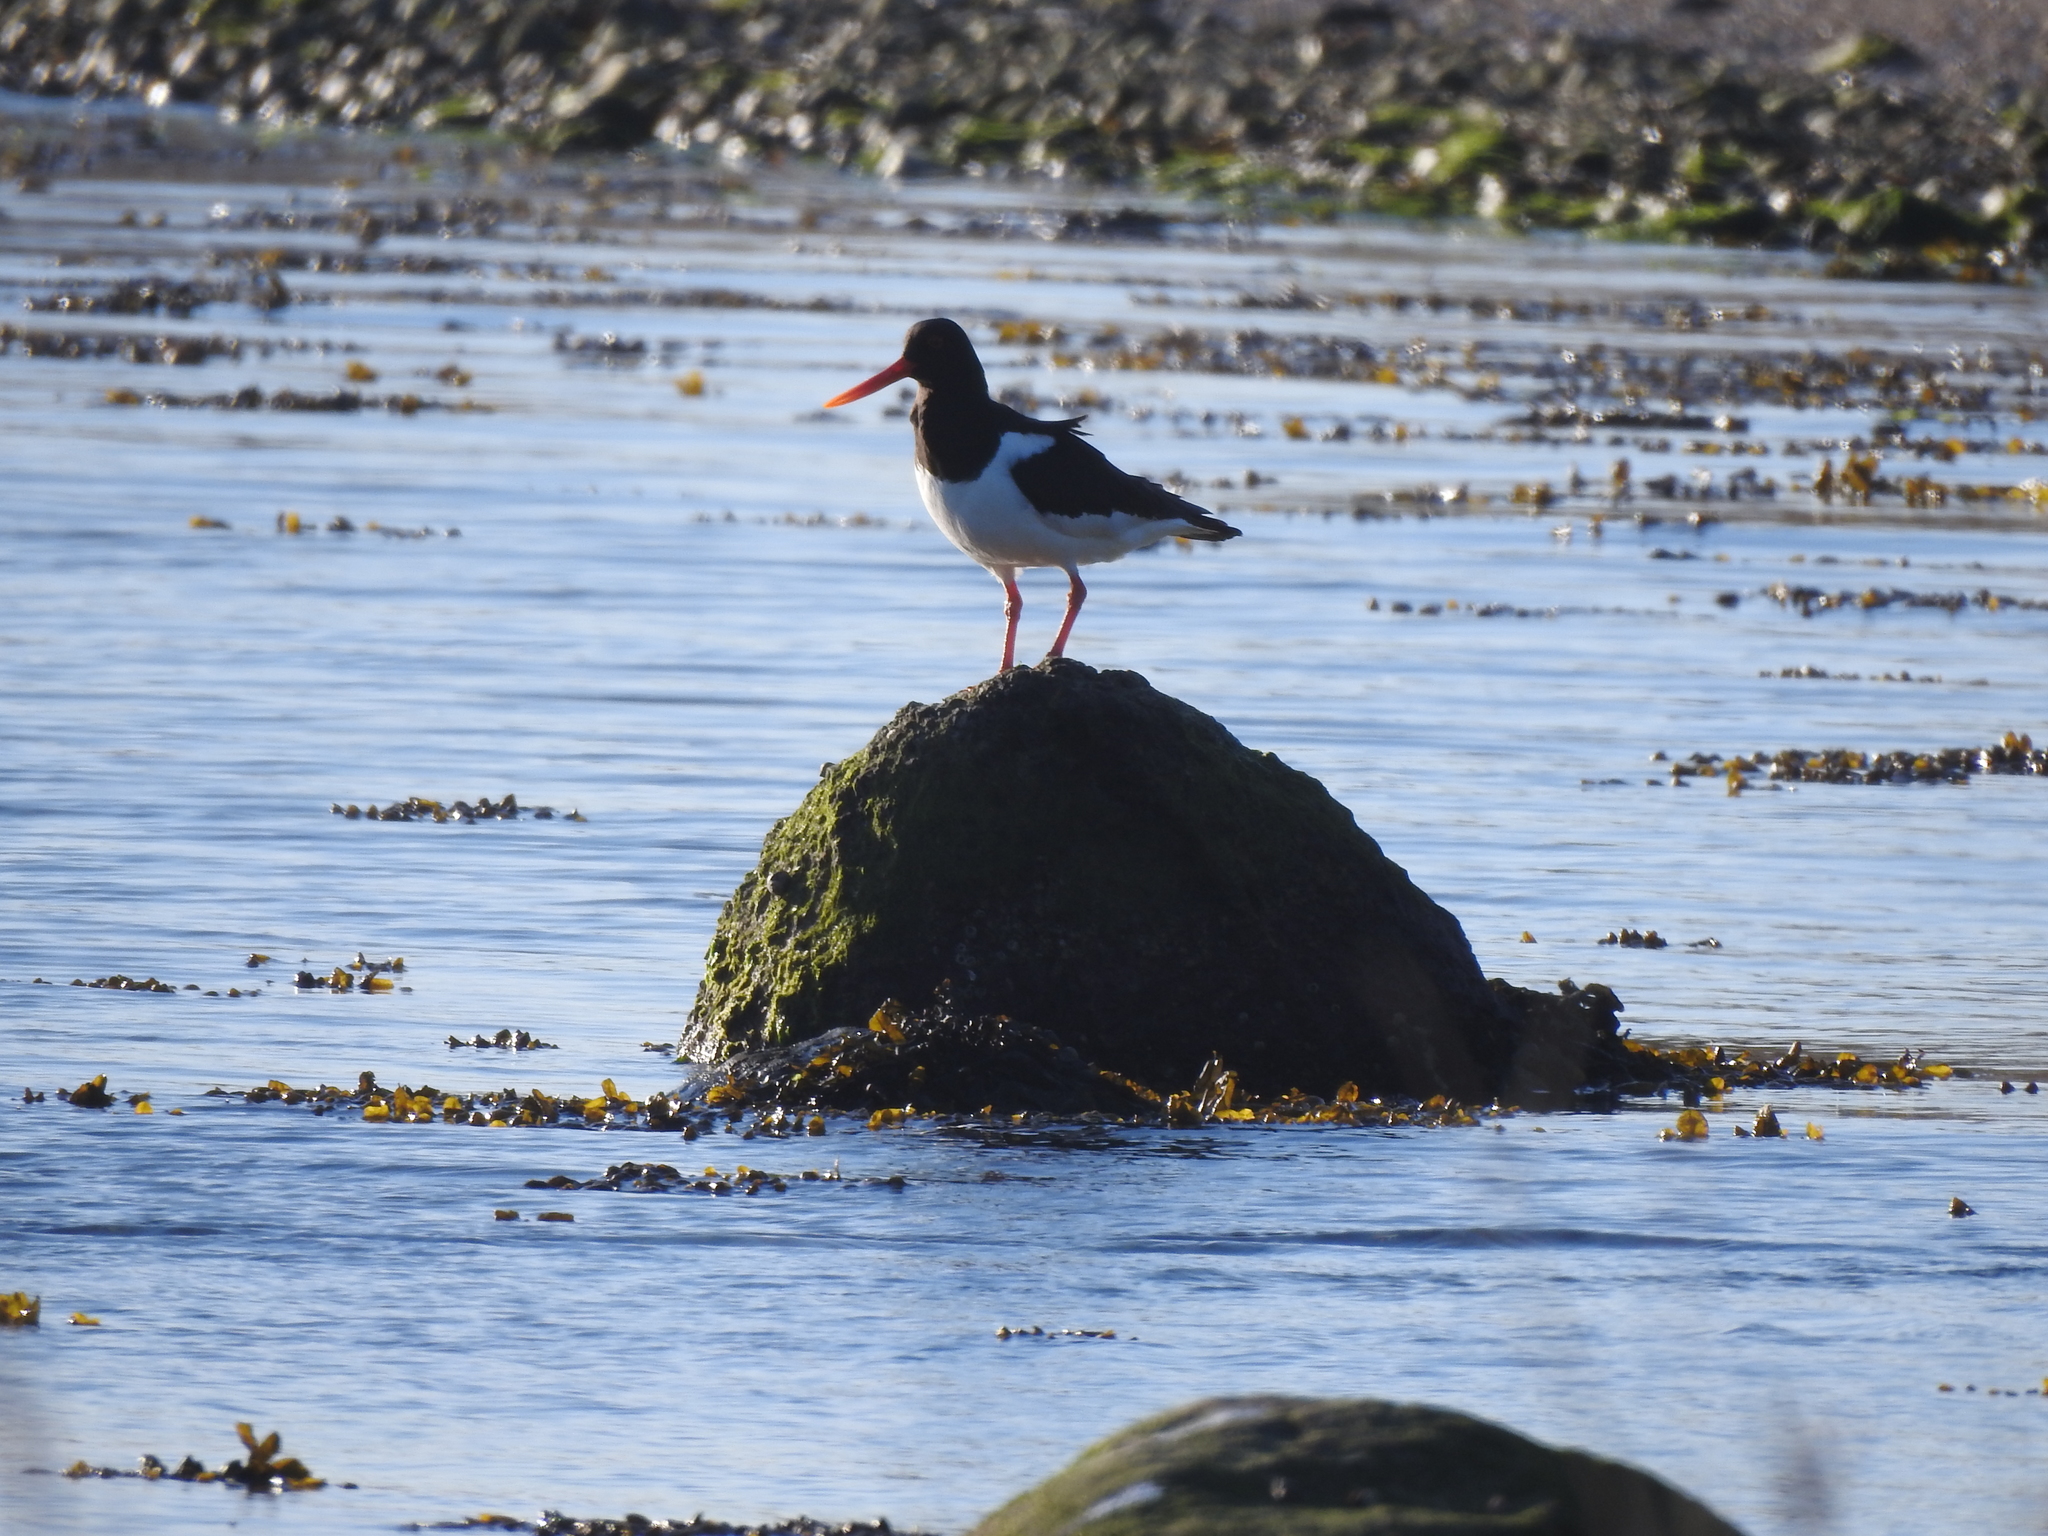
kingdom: Animalia
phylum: Chordata
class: Aves
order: Charadriiformes
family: Haematopodidae
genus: Haematopus
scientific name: Haematopus ostralegus
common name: Eurasian oystercatcher
